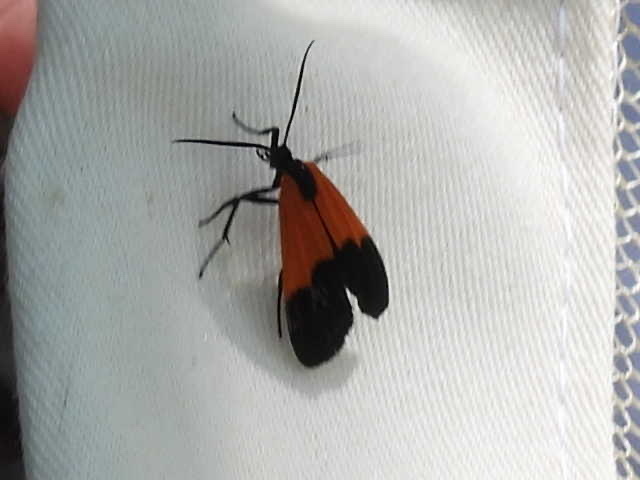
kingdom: Animalia
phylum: Arthropoda
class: Insecta
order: Lepidoptera
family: Erebidae
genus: Lycomorpha
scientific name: Lycomorpha pholus
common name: Black-and-yellow lichen moth
